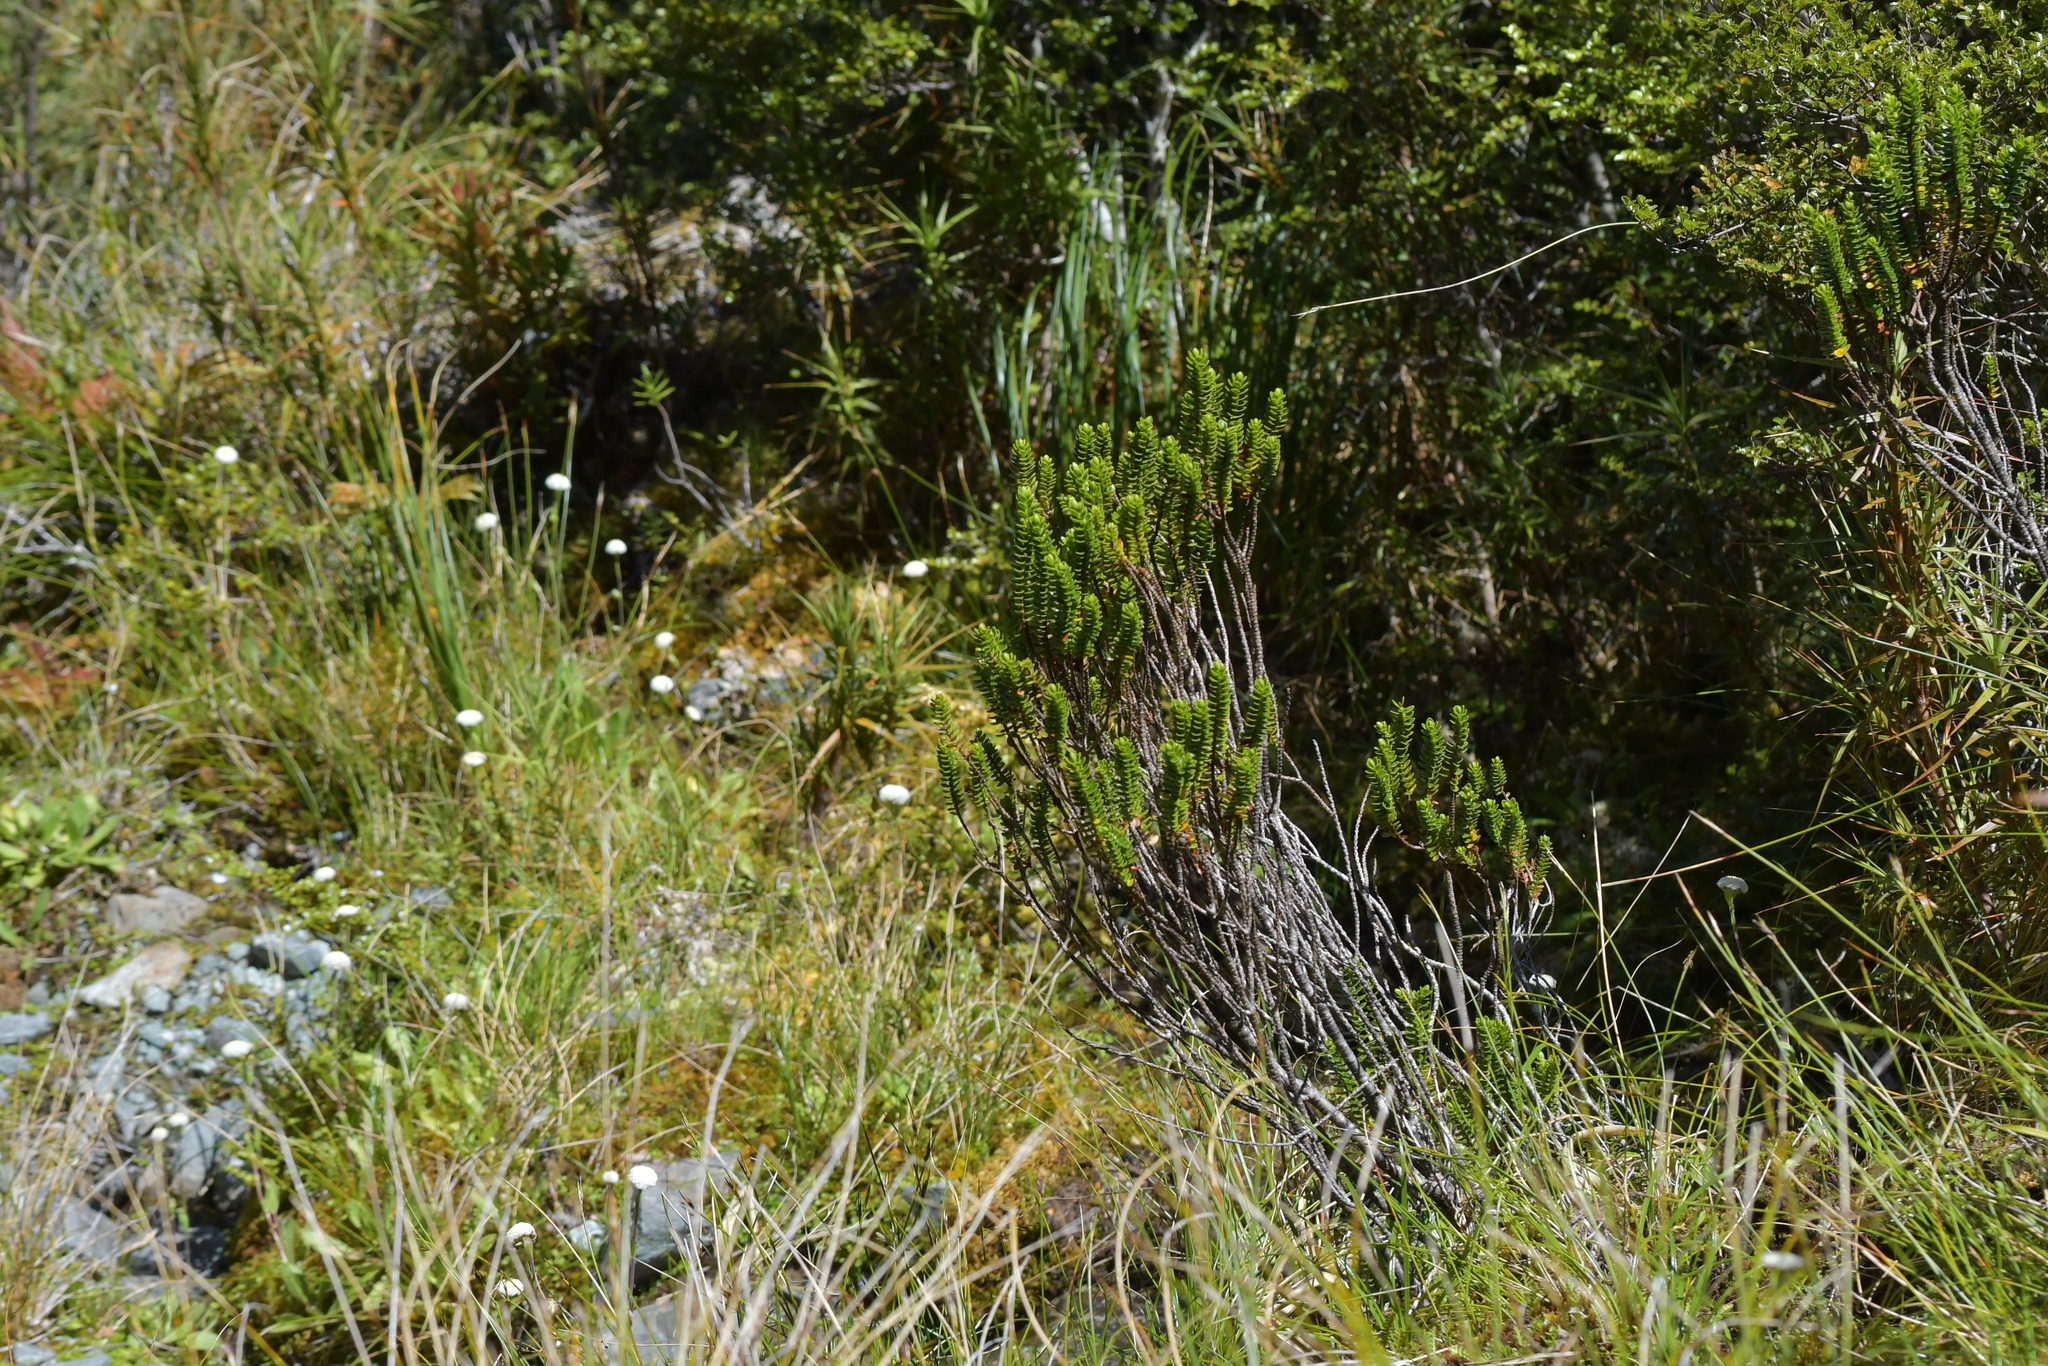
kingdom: Plantae
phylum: Tracheophyta
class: Magnoliopsida
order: Lamiales
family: Plantaginaceae
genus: Veronica
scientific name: Veronica pauciramosa
